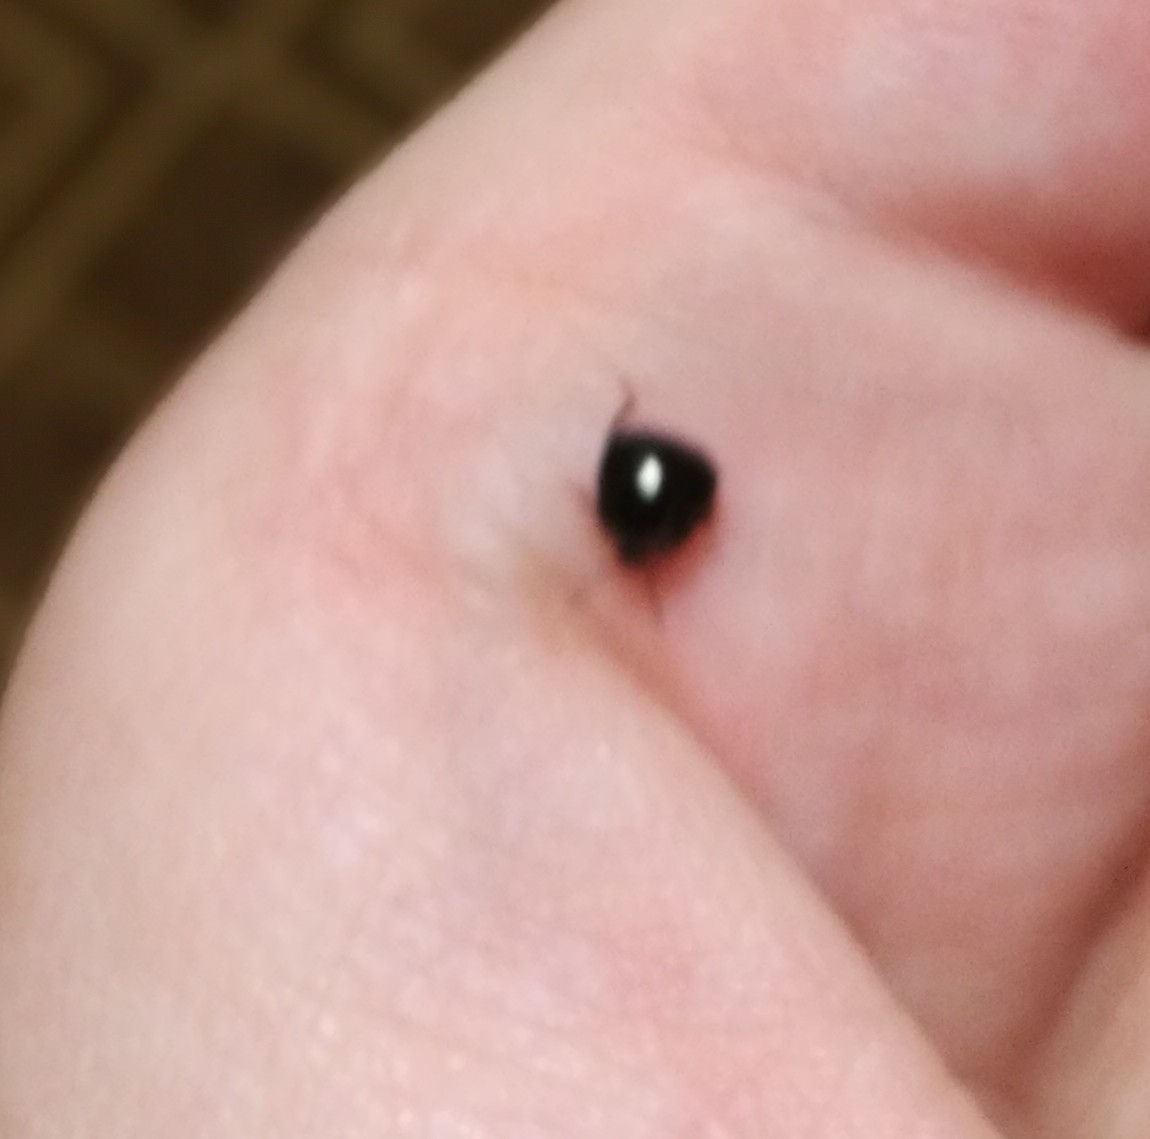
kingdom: Animalia
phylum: Arthropoda
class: Insecta
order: Hemiptera
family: Plataspidae
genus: Coptosoma
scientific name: Coptosoma scutellatum
